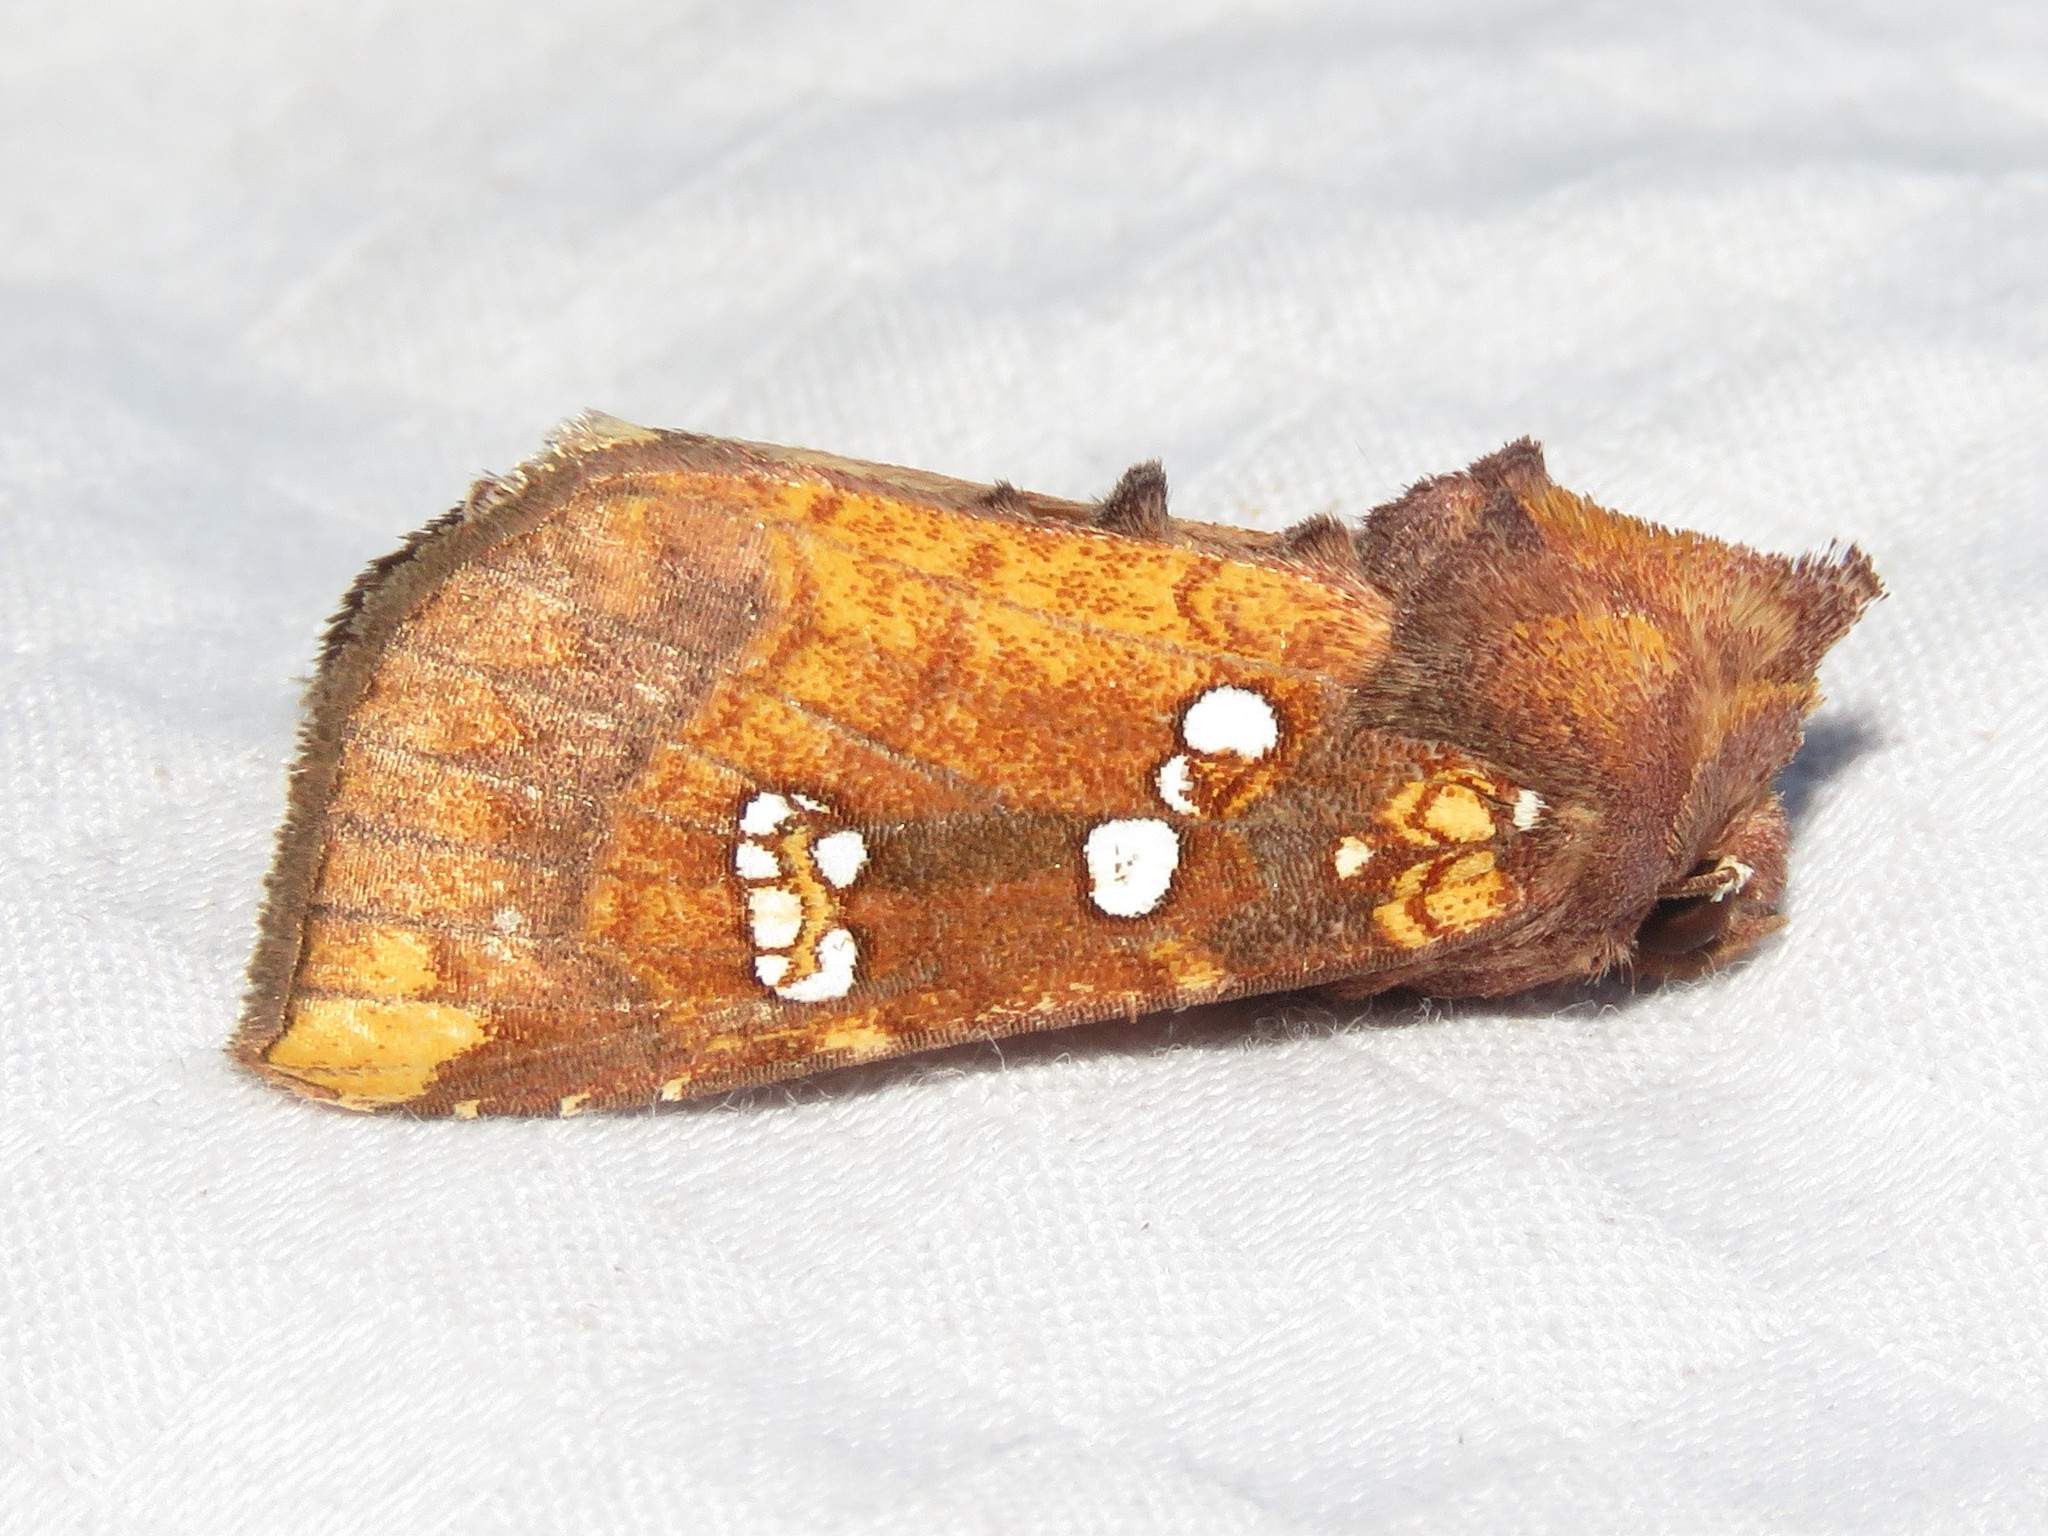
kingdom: Animalia
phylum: Arthropoda
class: Insecta
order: Lepidoptera
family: Noctuidae
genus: Papaipema
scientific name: Papaipema baptisiae
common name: Wild indigo borer moth
